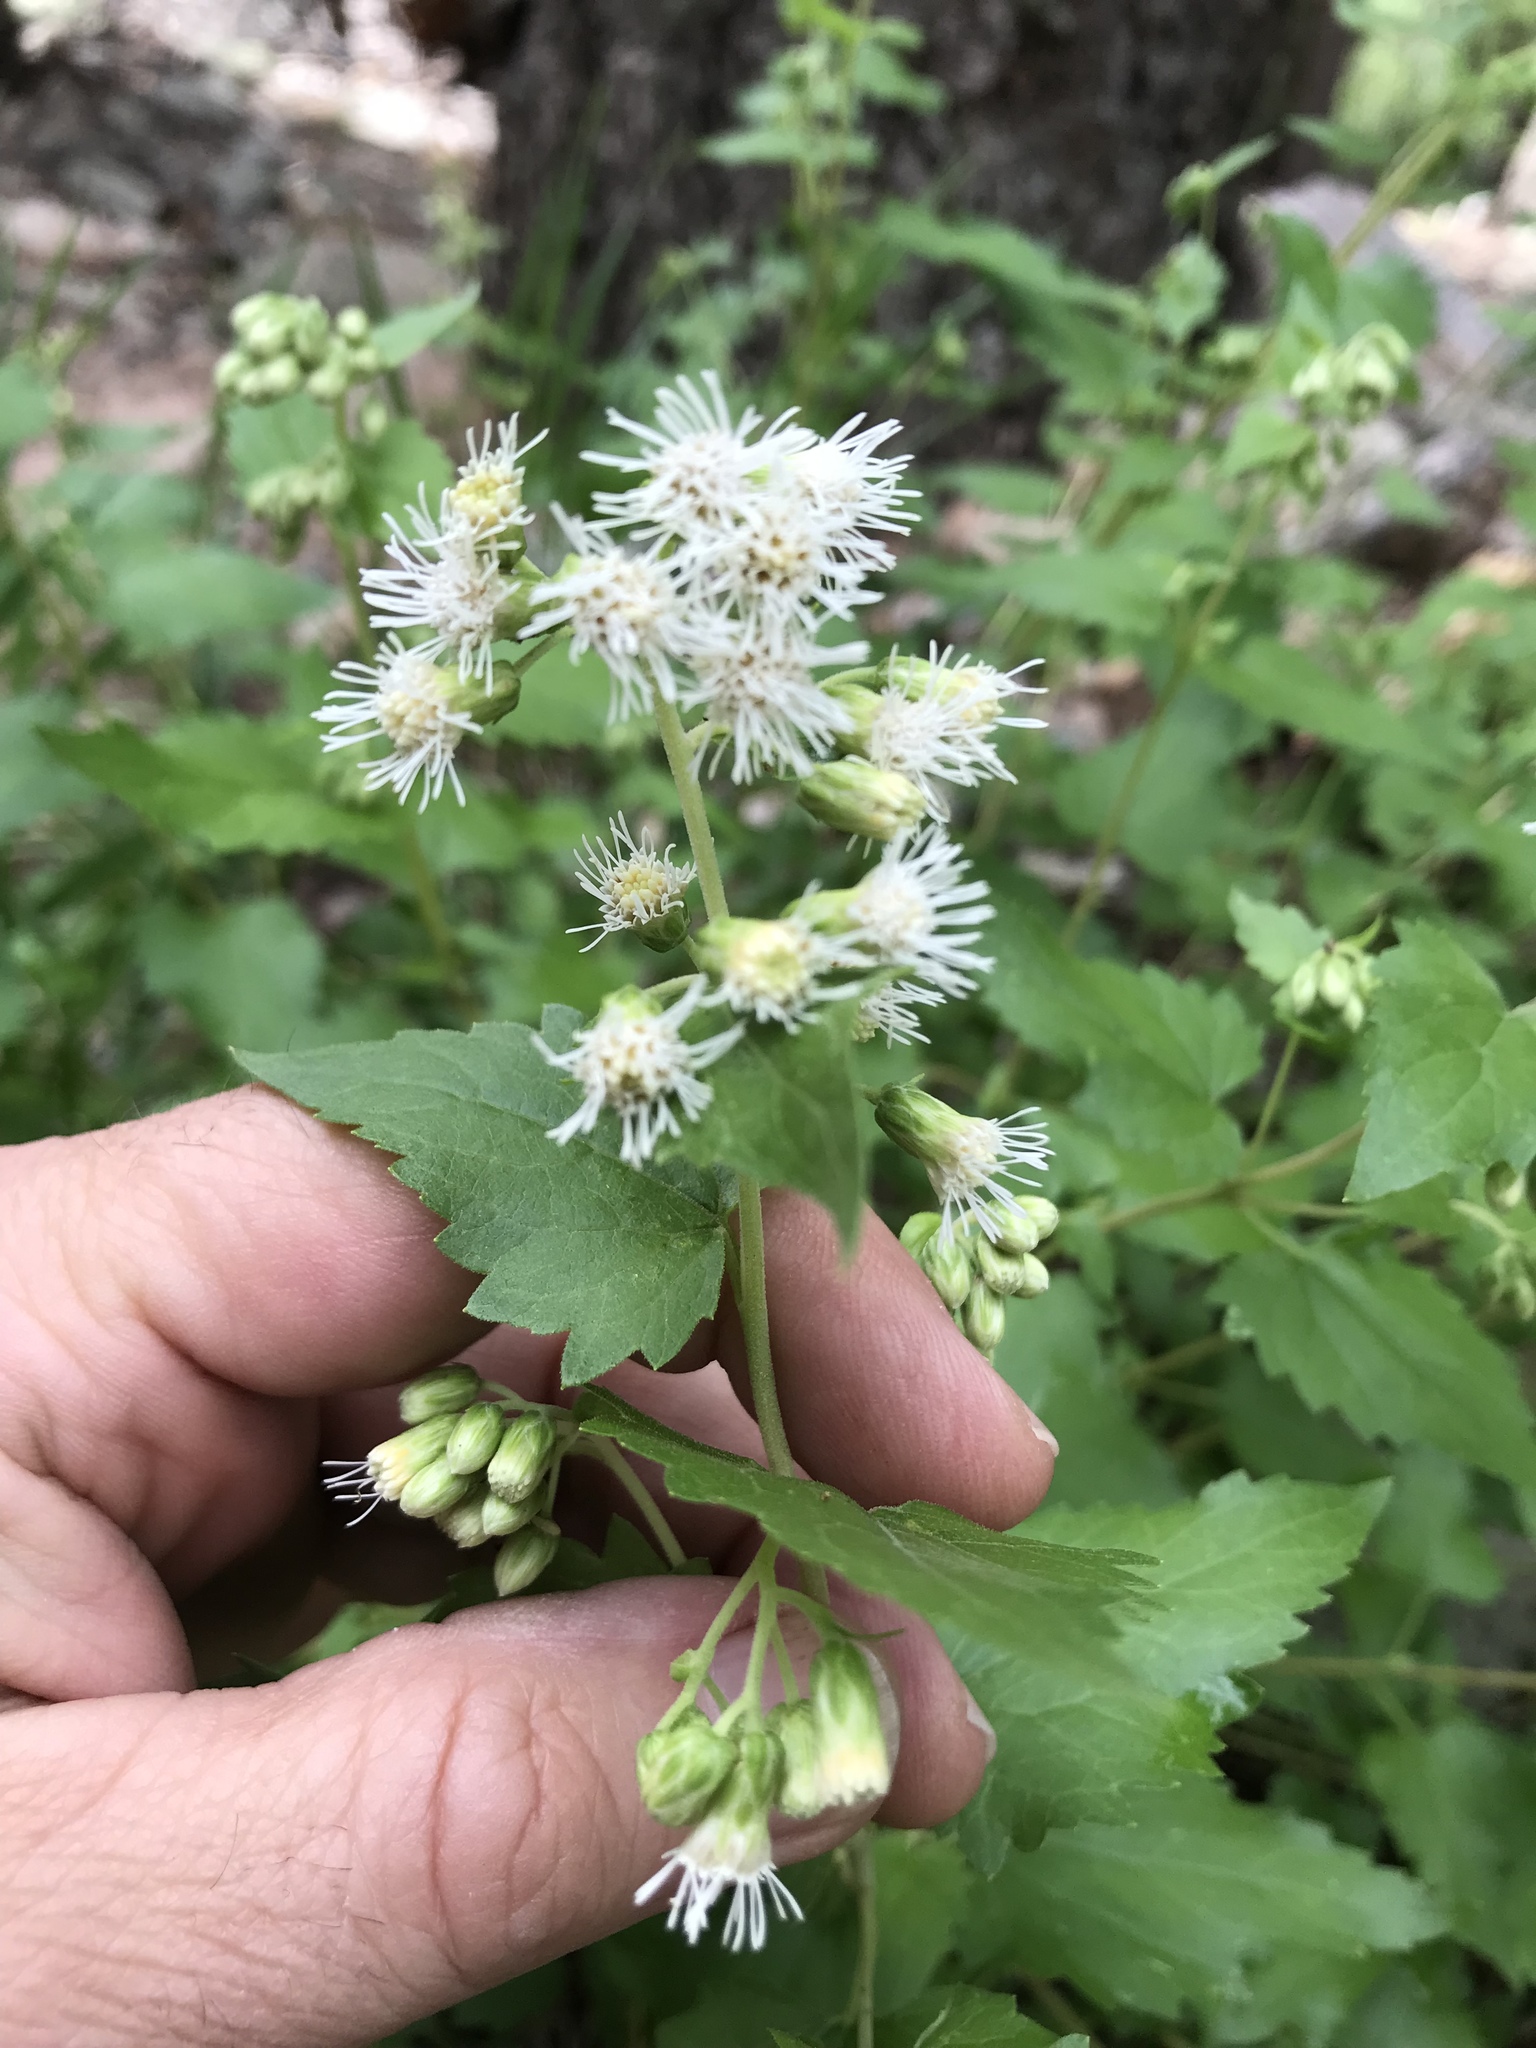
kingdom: Plantae
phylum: Tracheophyta
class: Magnoliopsida
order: Asterales
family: Asteraceae
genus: Brickelliastrum
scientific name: Brickelliastrum fendleri
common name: Fendler's-brickellbush
